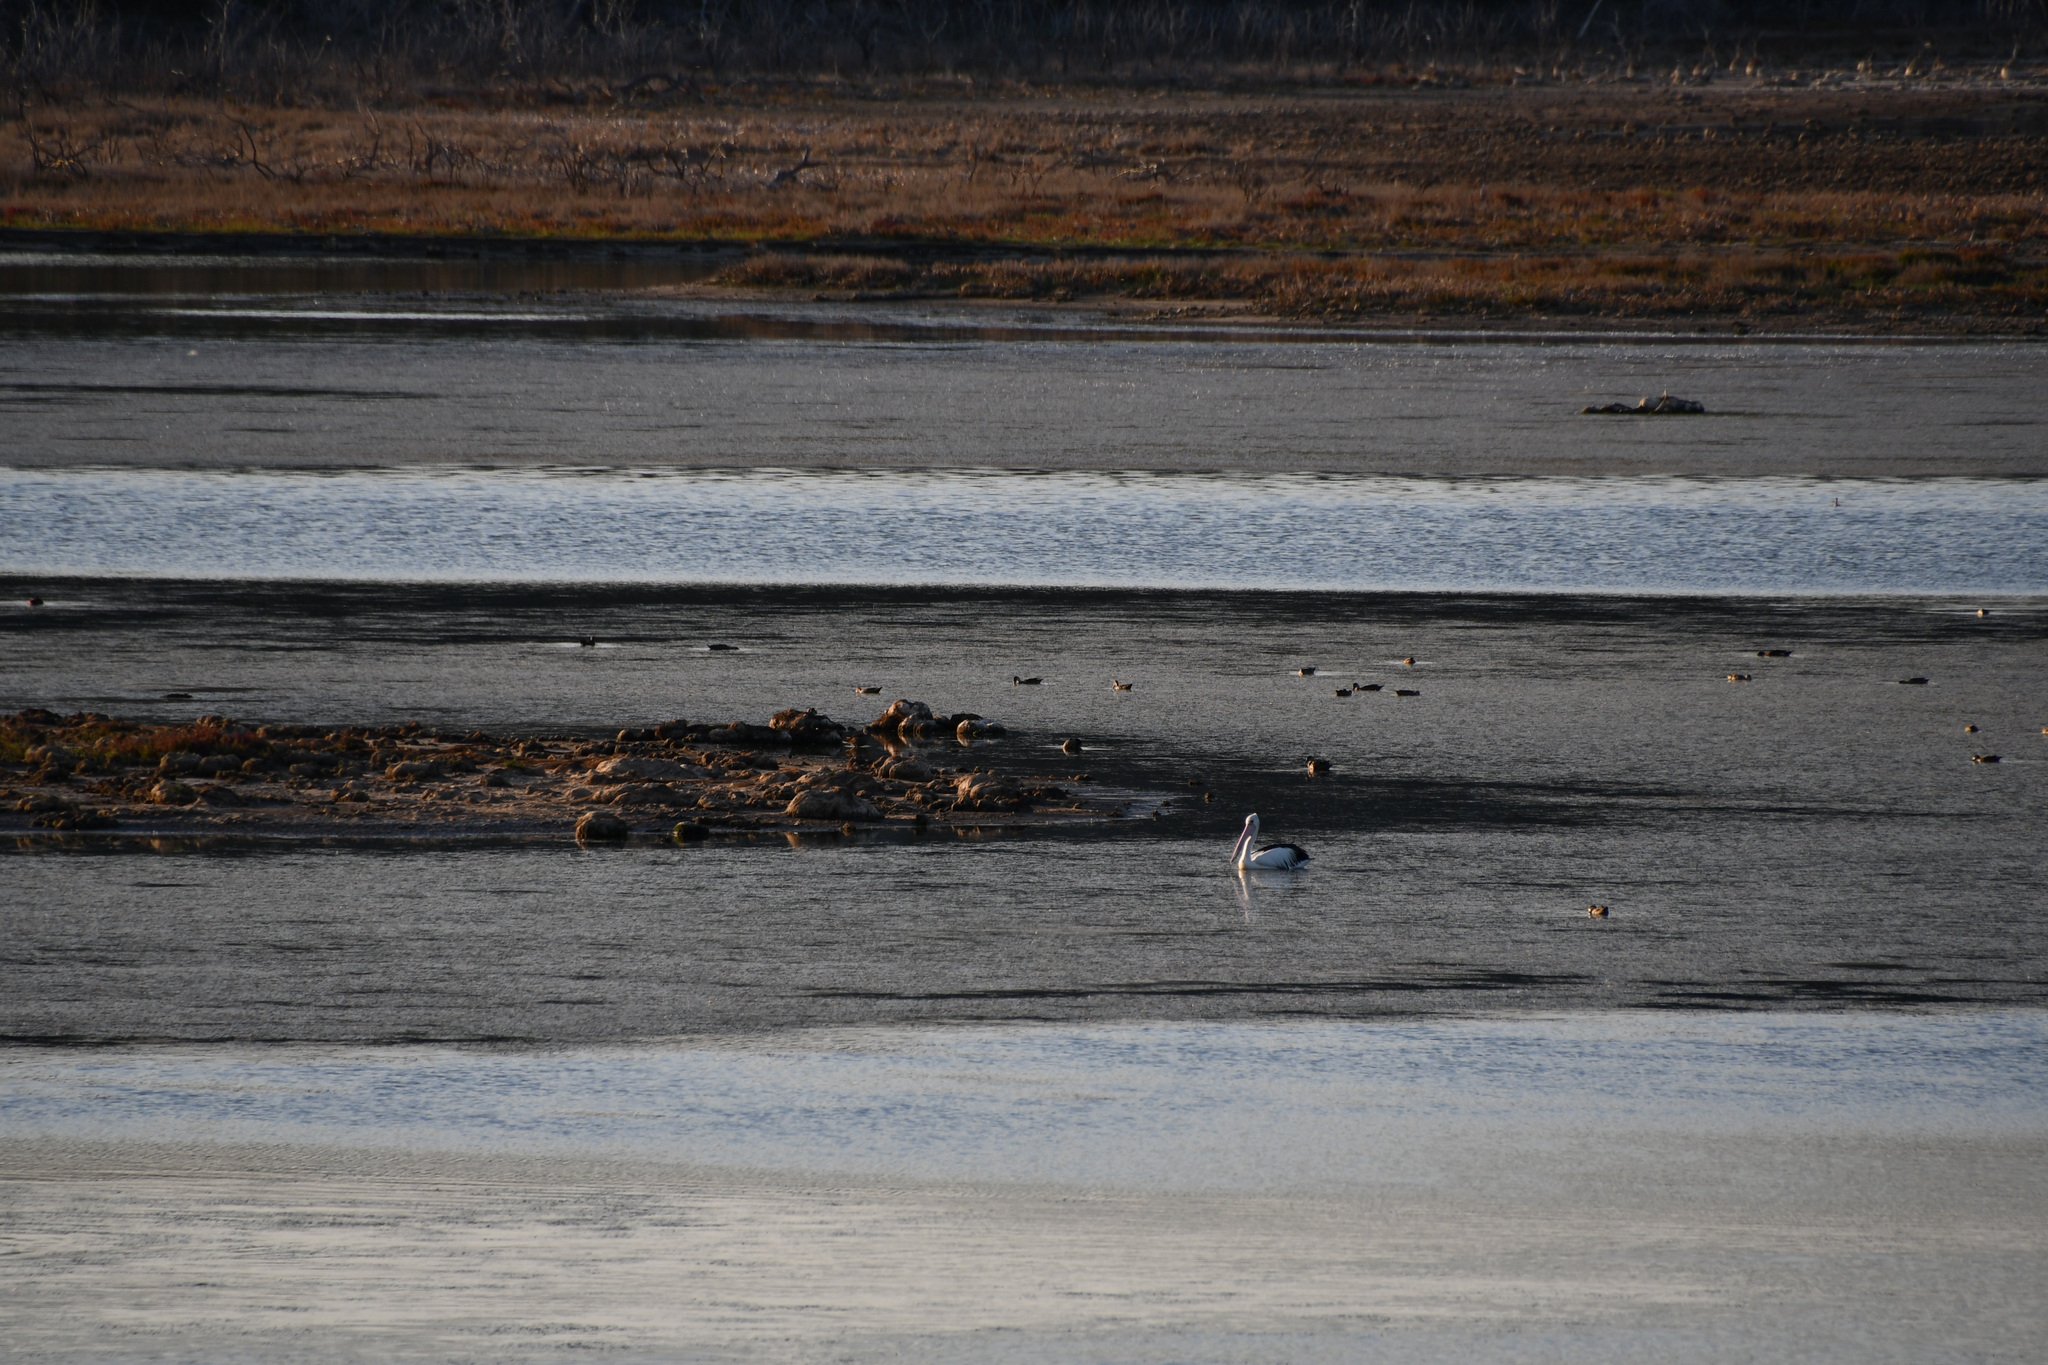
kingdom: Animalia
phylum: Chordata
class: Aves
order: Pelecaniformes
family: Pelecanidae
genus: Pelecanus
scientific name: Pelecanus conspicillatus
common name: Australian pelican
